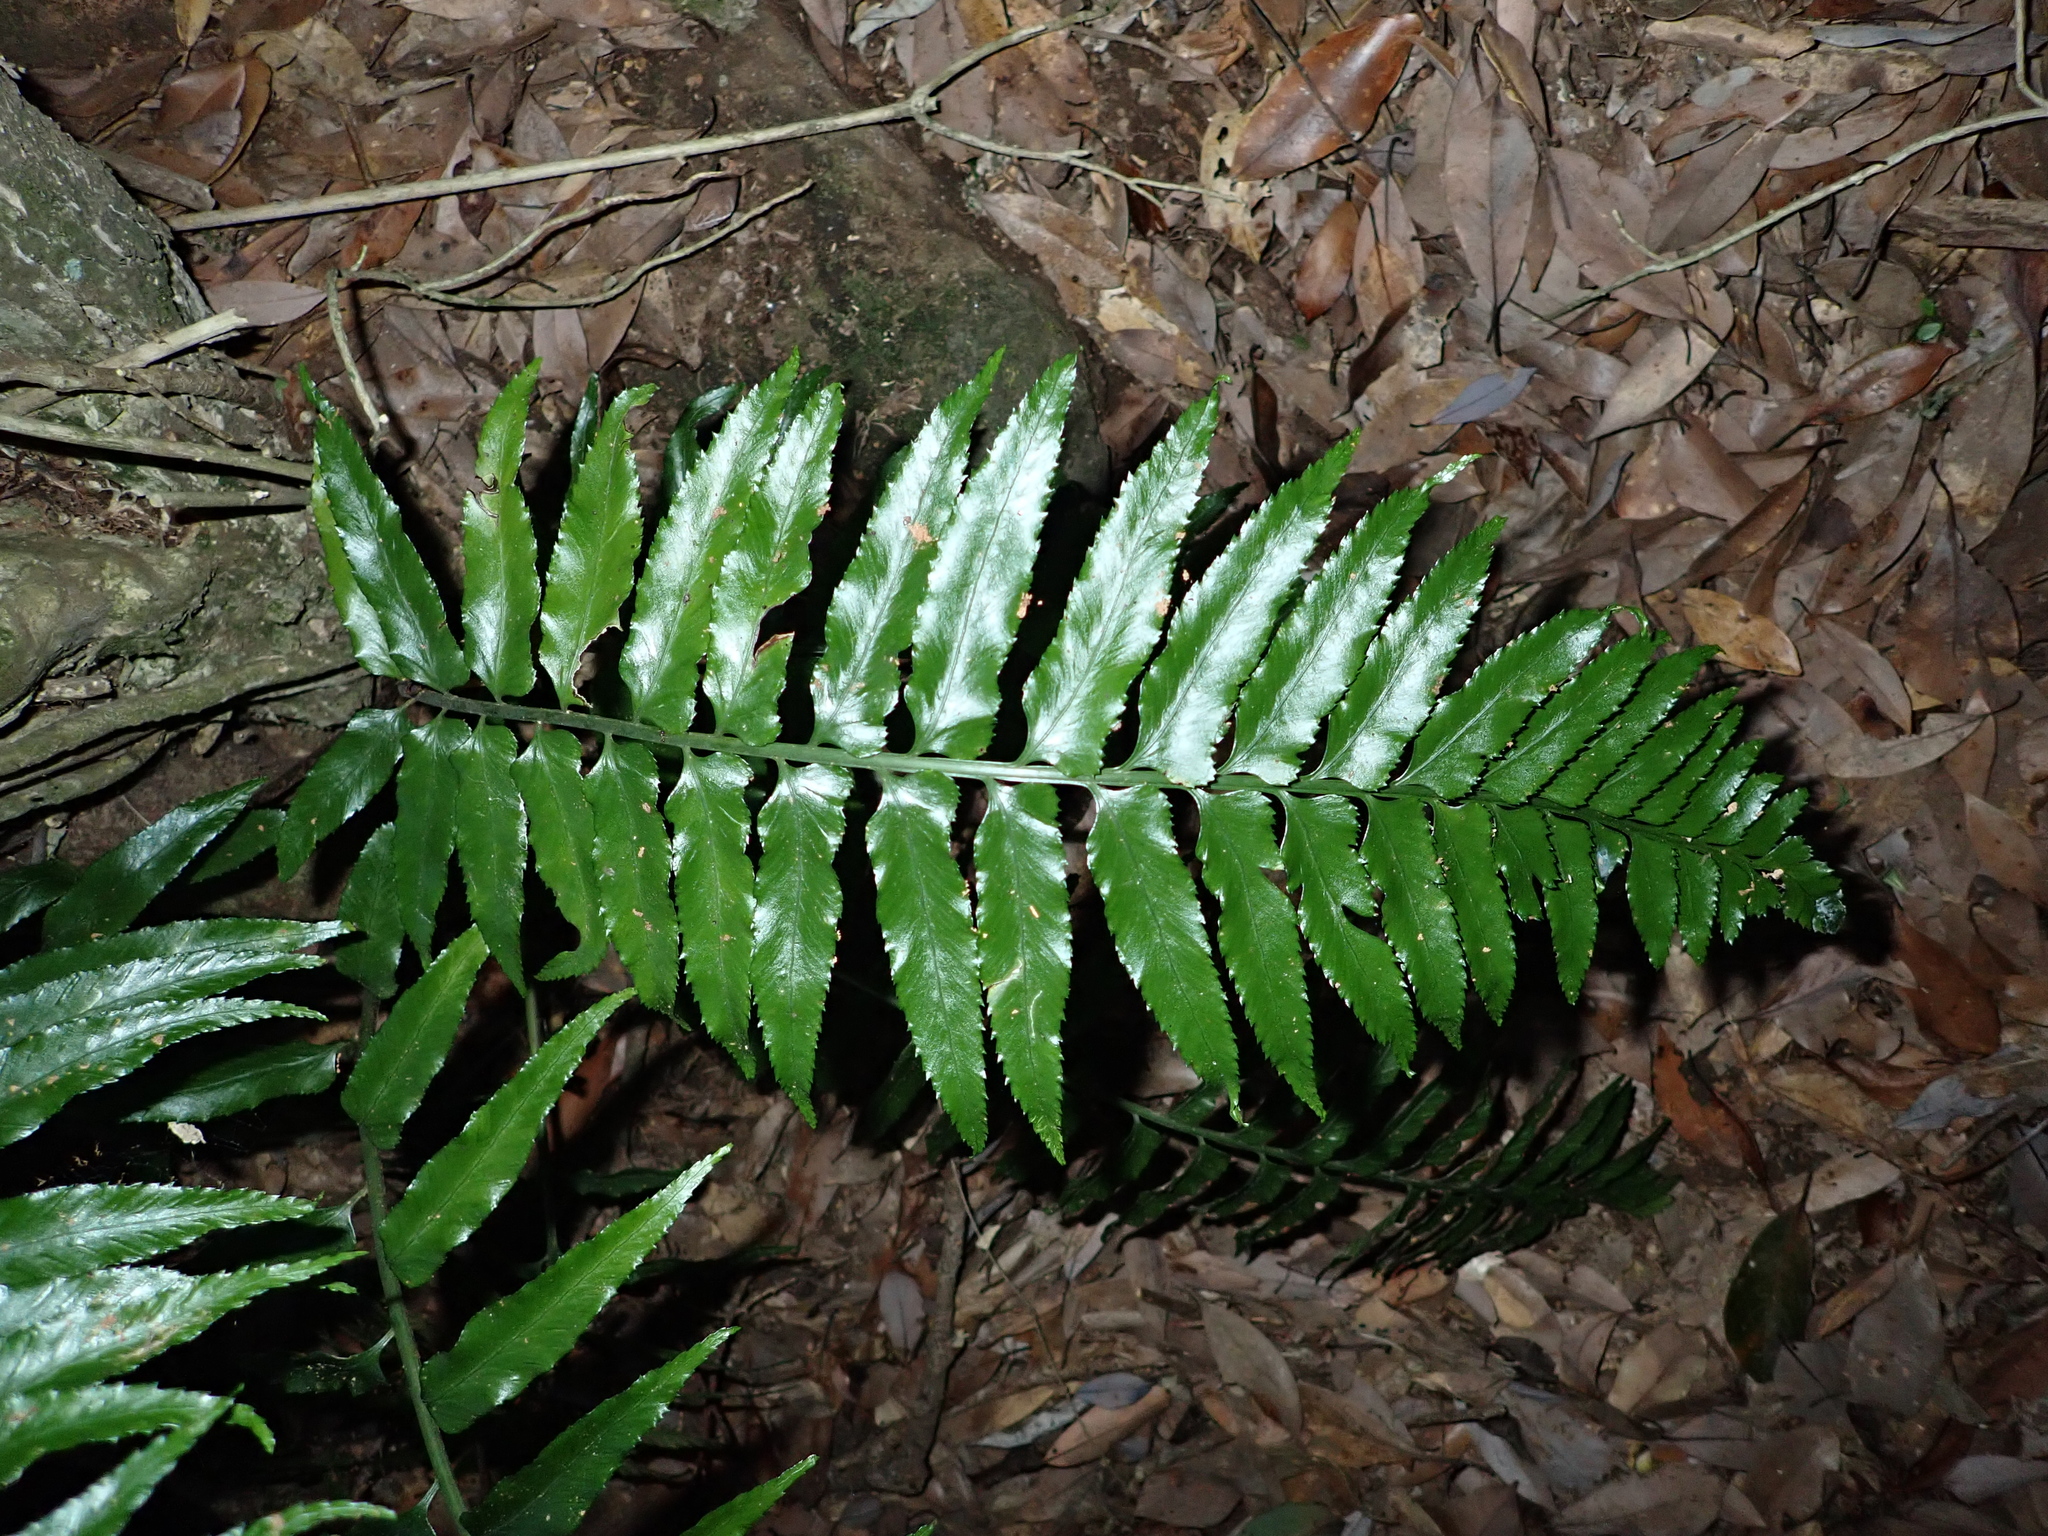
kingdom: Plantae
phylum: Tracheophyta
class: Polypodiopsida
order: Polypodiales
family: Aspleniaceae
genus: Asplenium
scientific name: Asplenium wrightii
